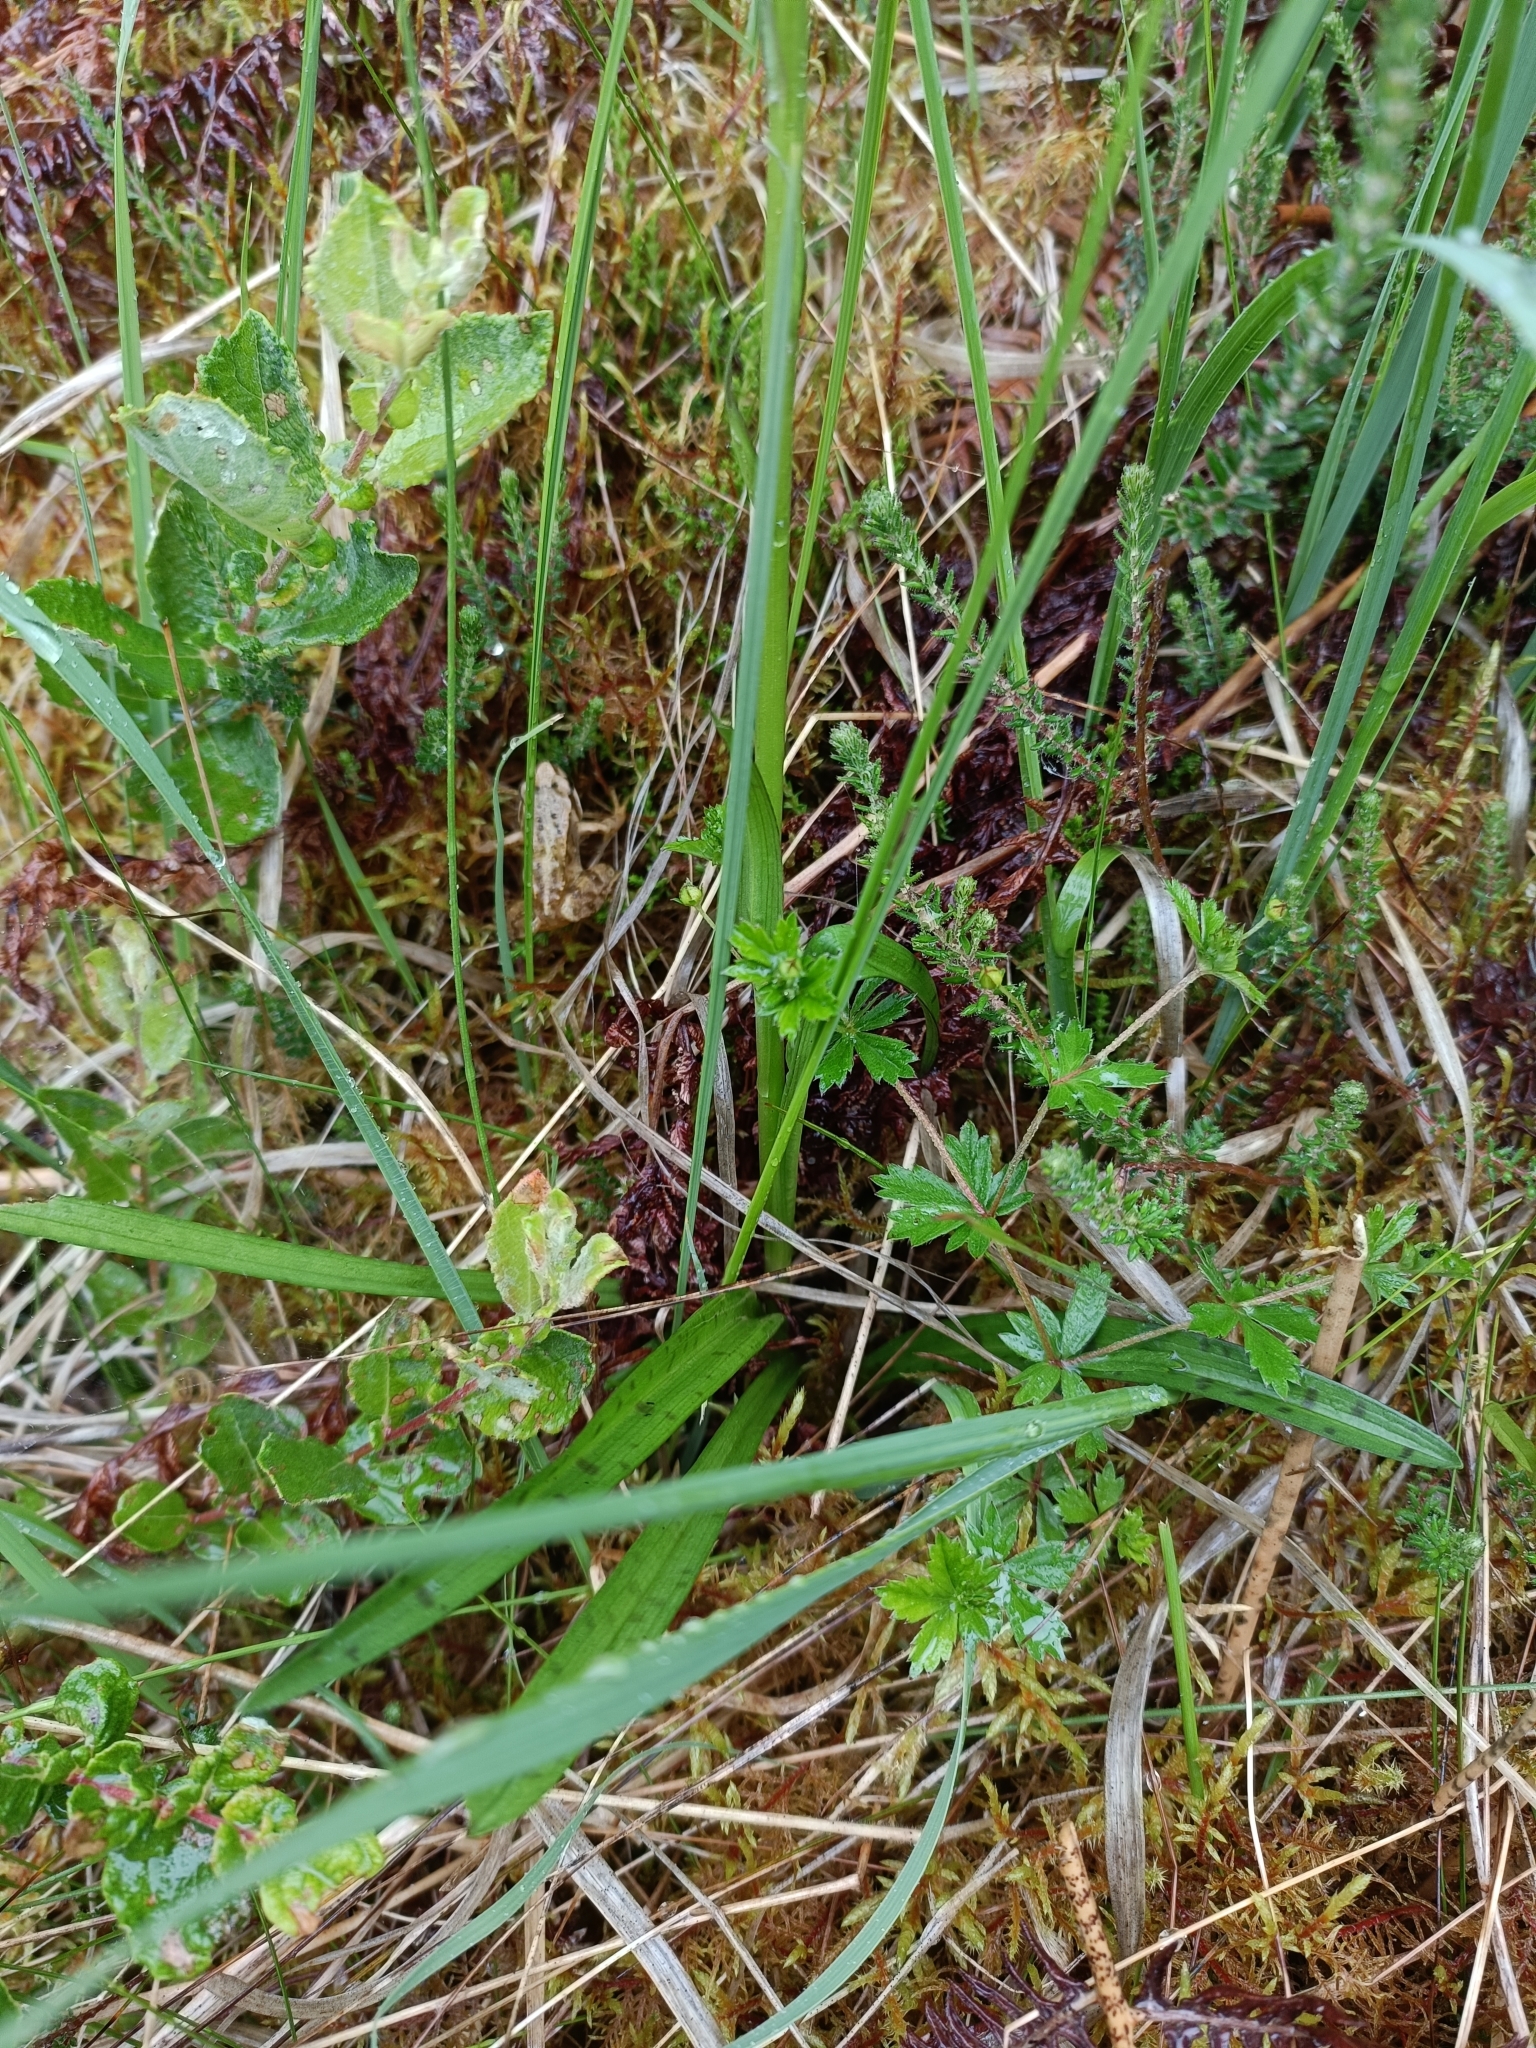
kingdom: Animalia
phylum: Chordata
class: Amphibia
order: Anura
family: Ranidae
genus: Rana
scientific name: Rana temporaria
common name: Common frog
